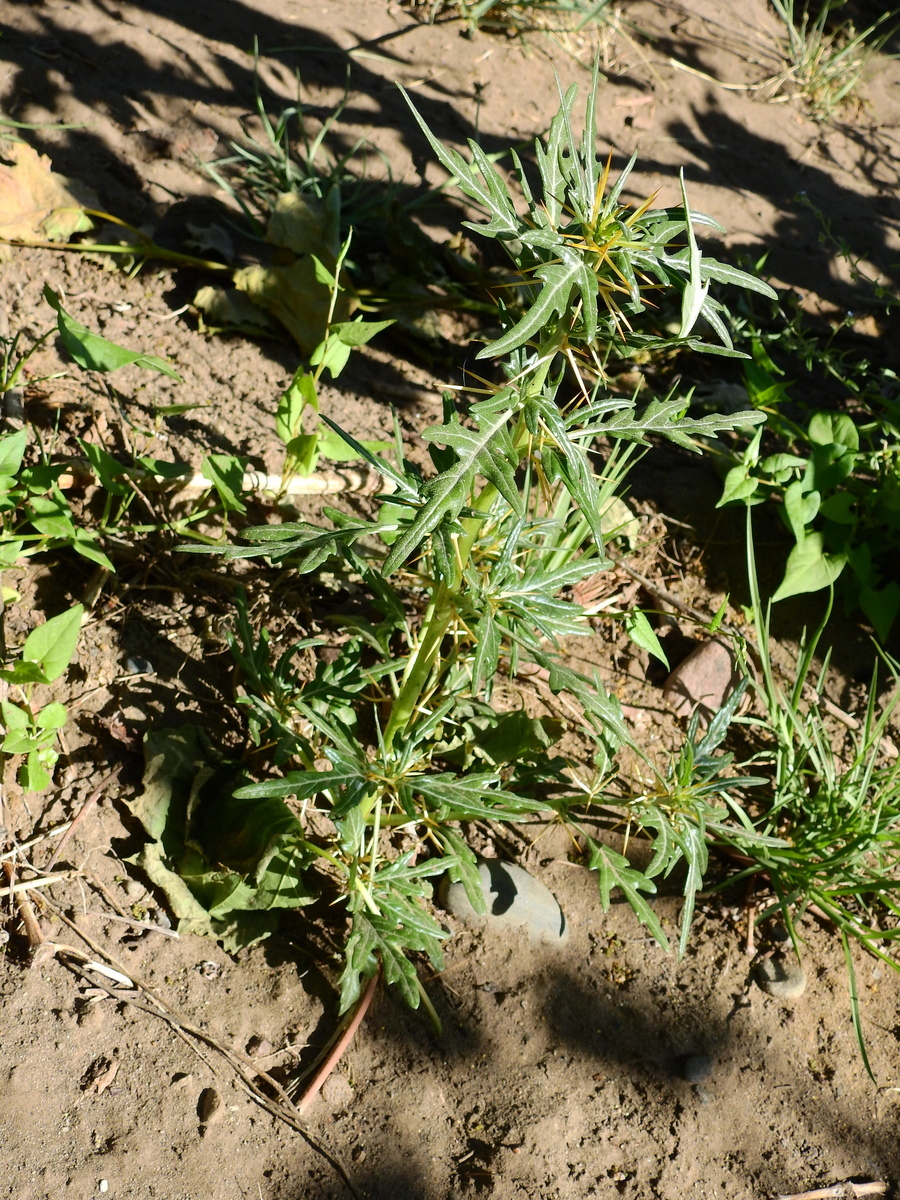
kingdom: Plantae
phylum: Tracheophyta
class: Magnoliopsida
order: Asterales
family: Asteraceae
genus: Xanthium
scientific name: Xanthium spinosum
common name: Spiny cocklebur
